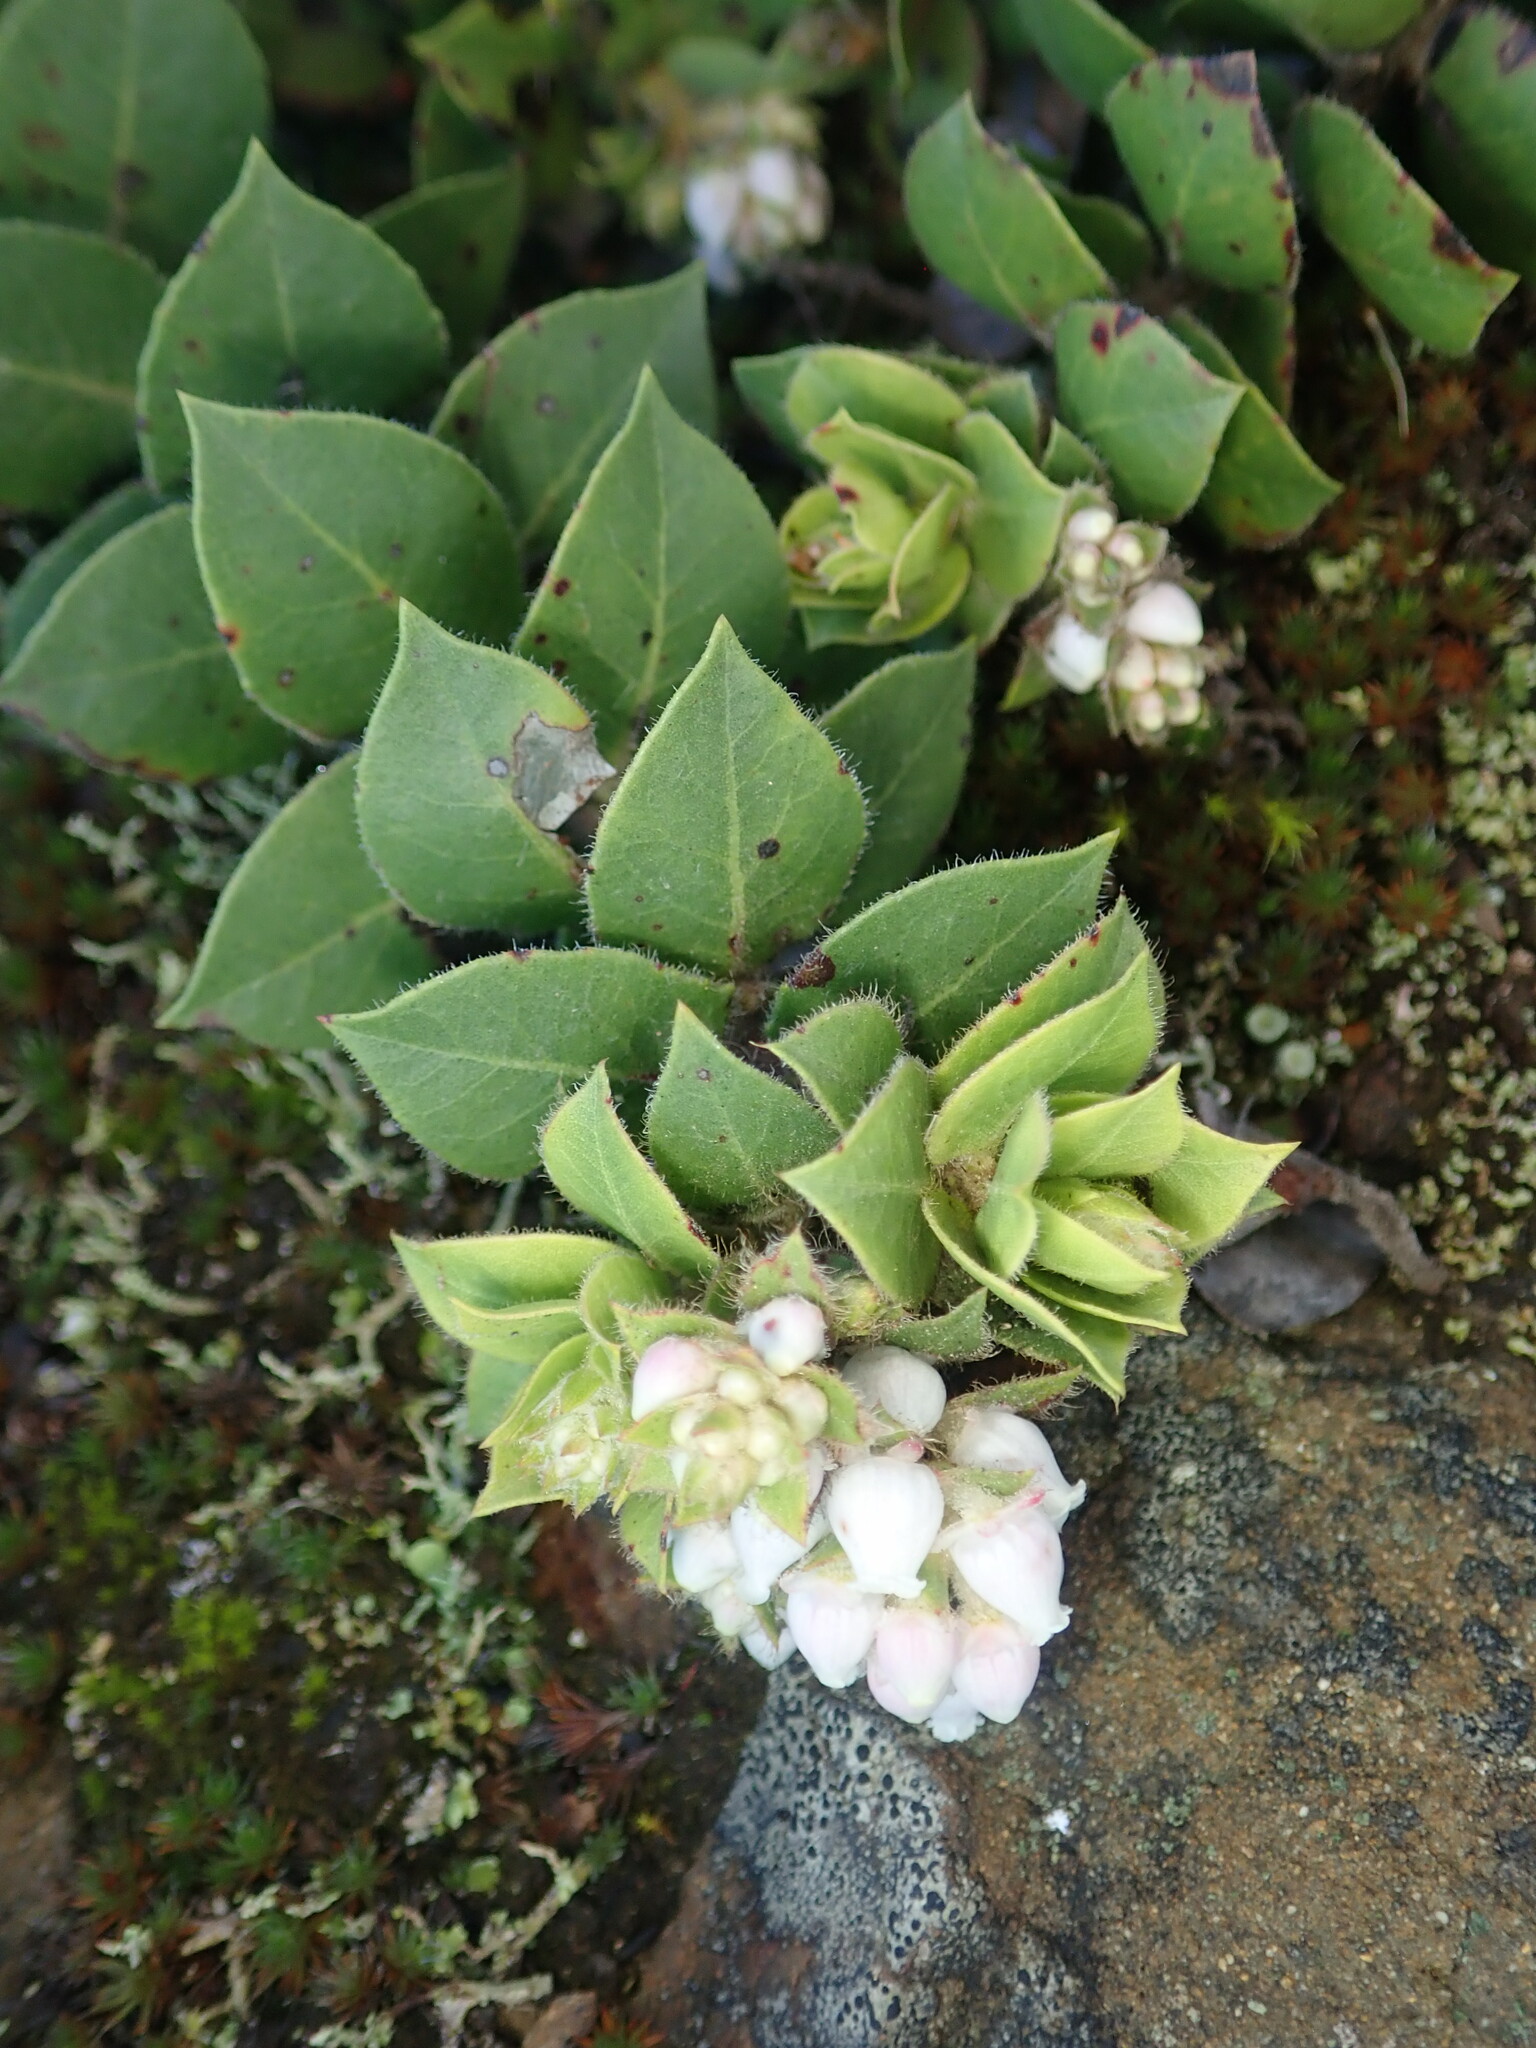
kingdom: Plantae
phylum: Tracheophyta
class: Magnoliopsida
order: Ericales
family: Ericaceae
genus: Arctostaphylos
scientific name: Arctostaphylos imbricata
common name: San bruno mountain manzanita
